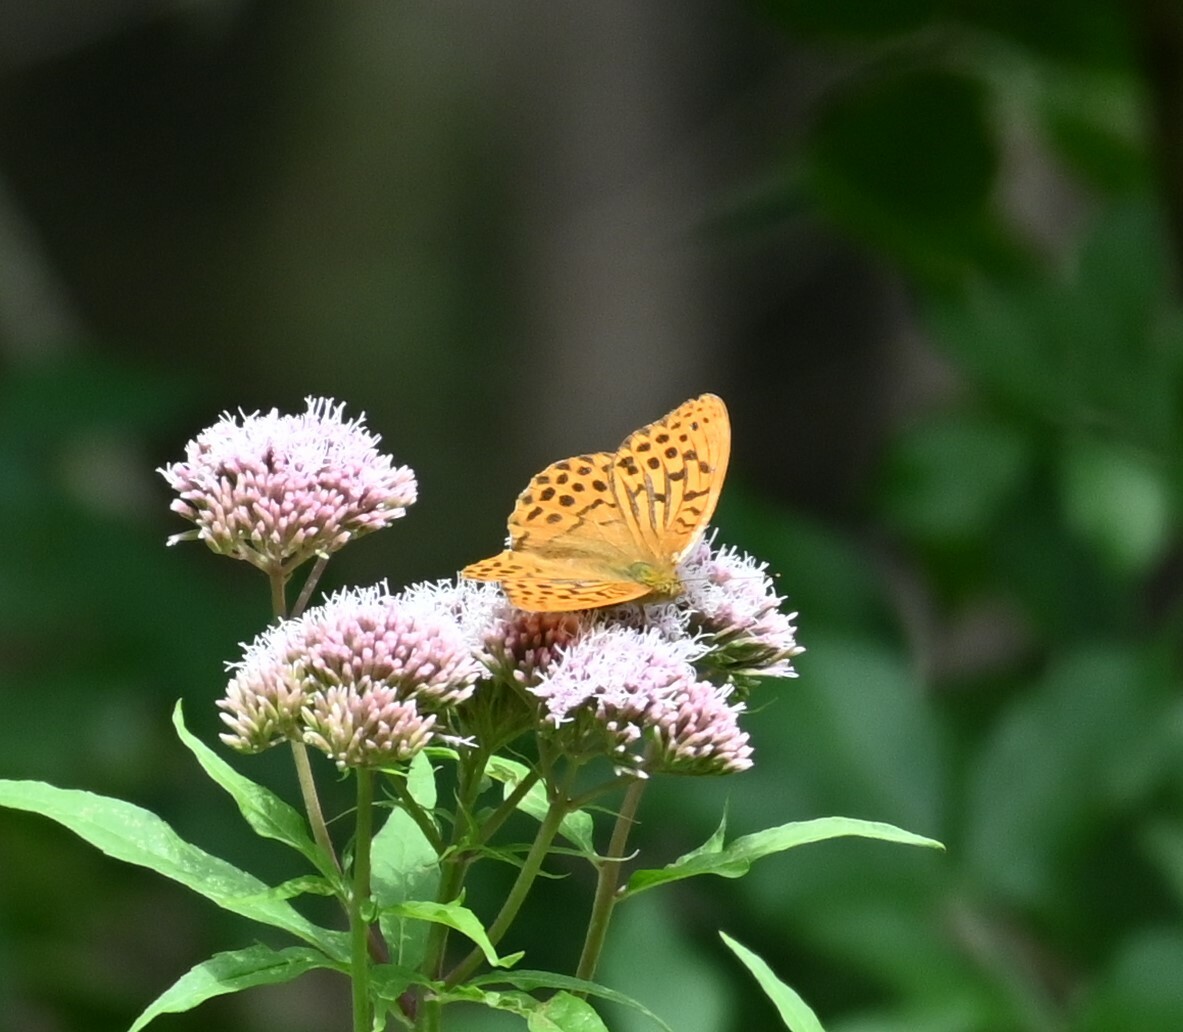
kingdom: Animalia
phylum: Arthropoda
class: Insecta
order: Lepidoptera
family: Nymphalidae
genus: Argynnis
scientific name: Argynnis paphia
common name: Silver-washed fritillary
